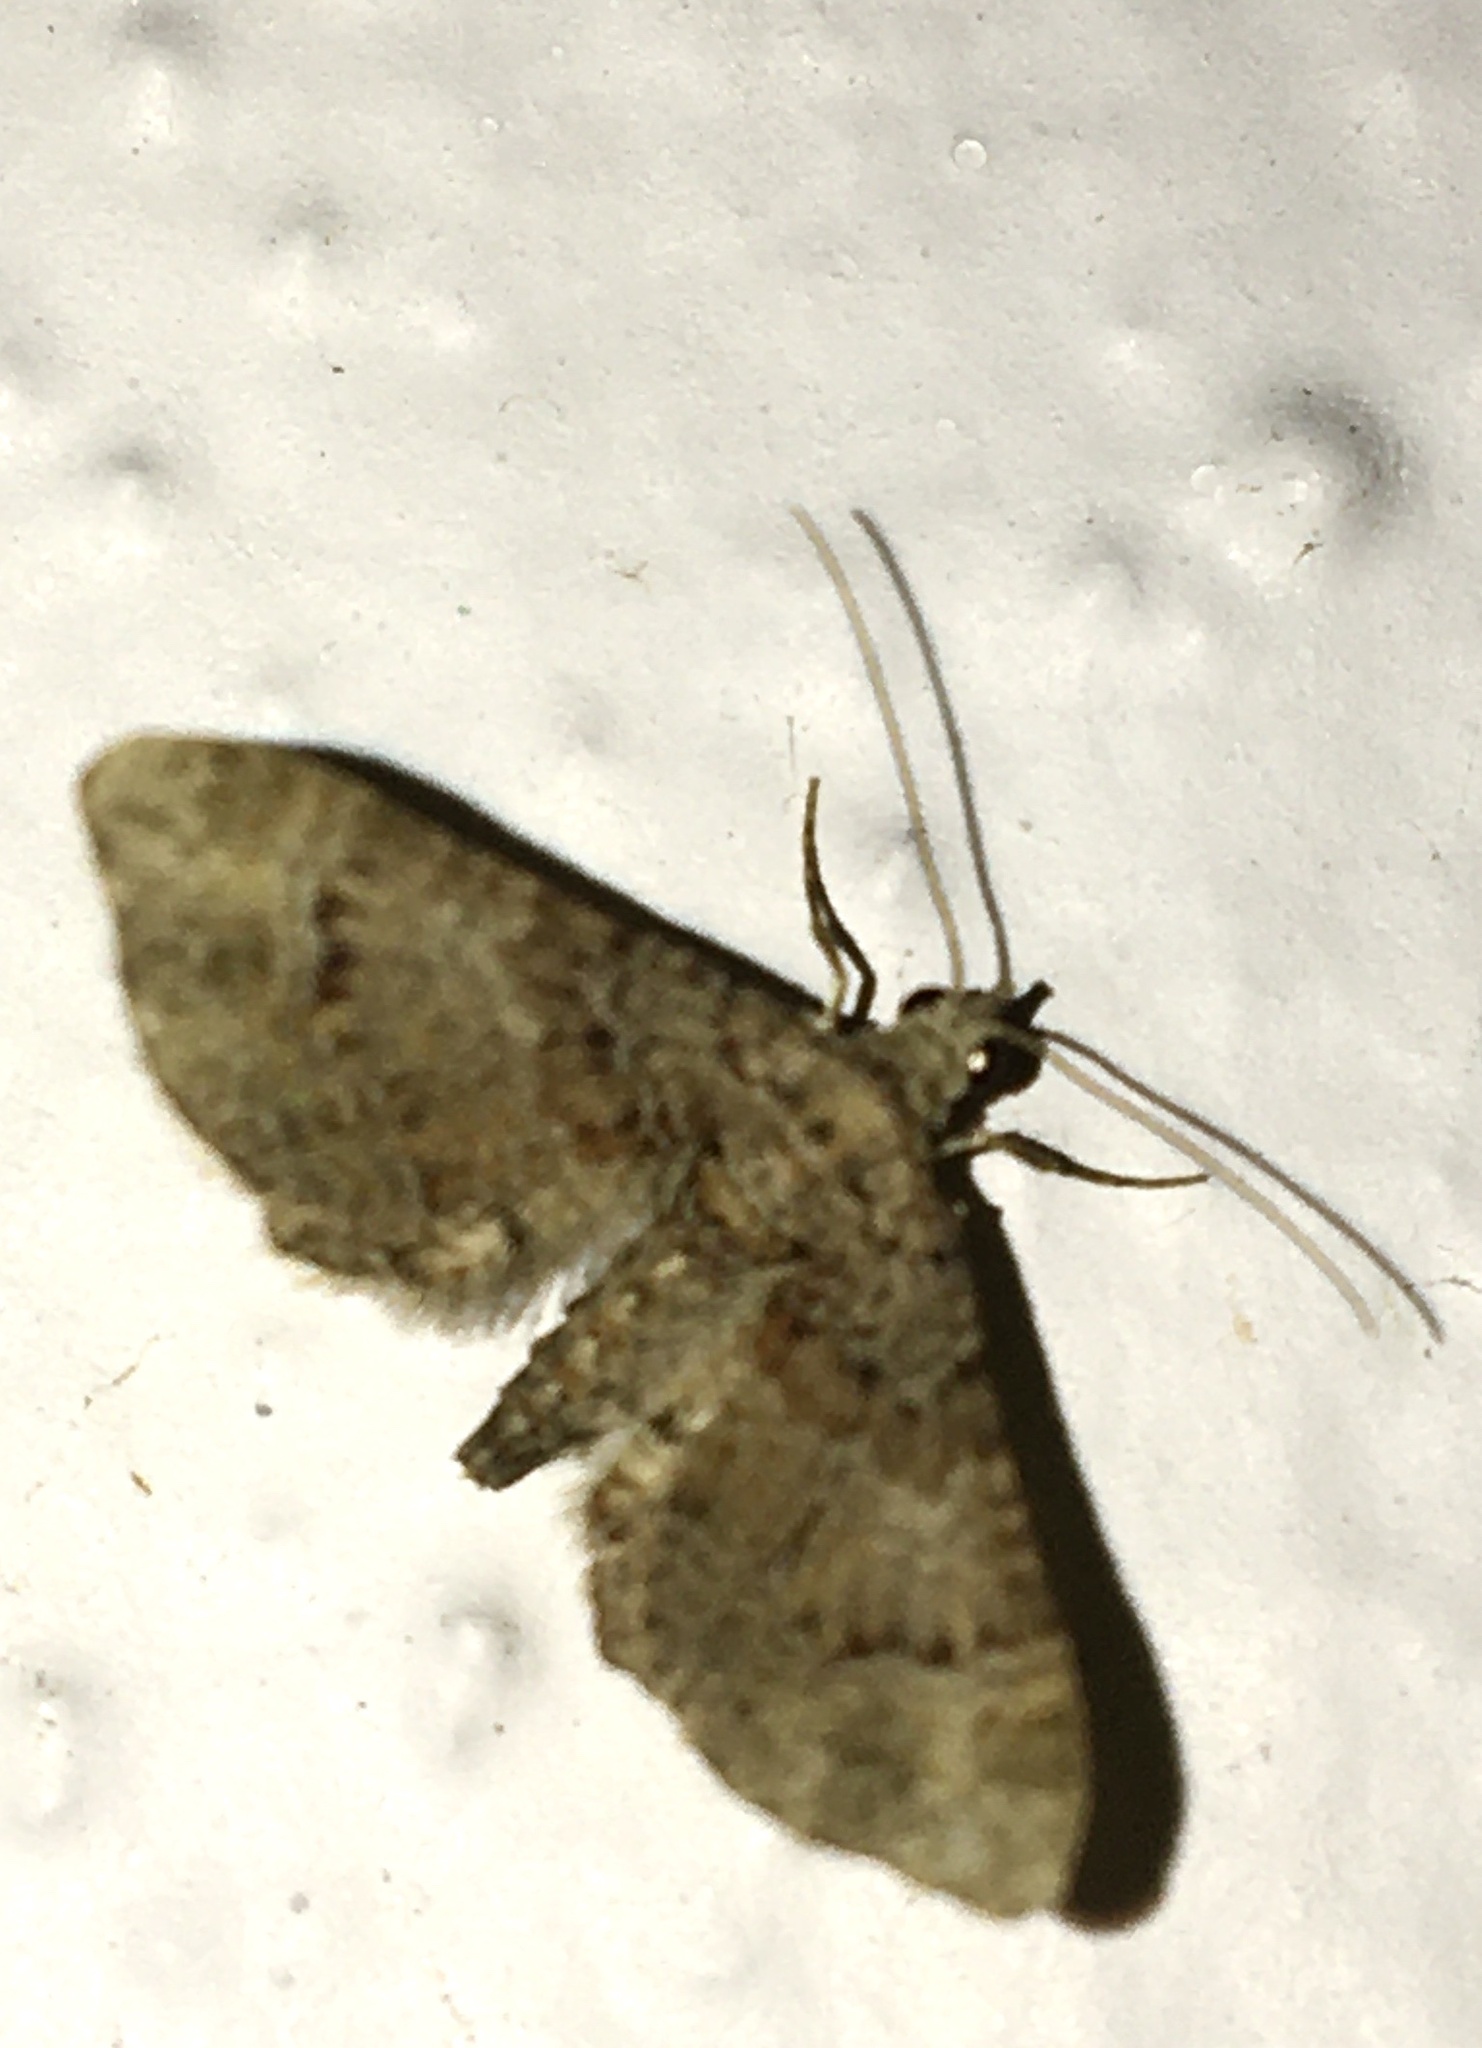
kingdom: Animalia
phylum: Arthropoda
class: Insecta
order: Lepidoptera
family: Geometridae
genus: Gymnoscelis
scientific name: Gymnoscelis rufifasciata
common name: Double-striped pug
